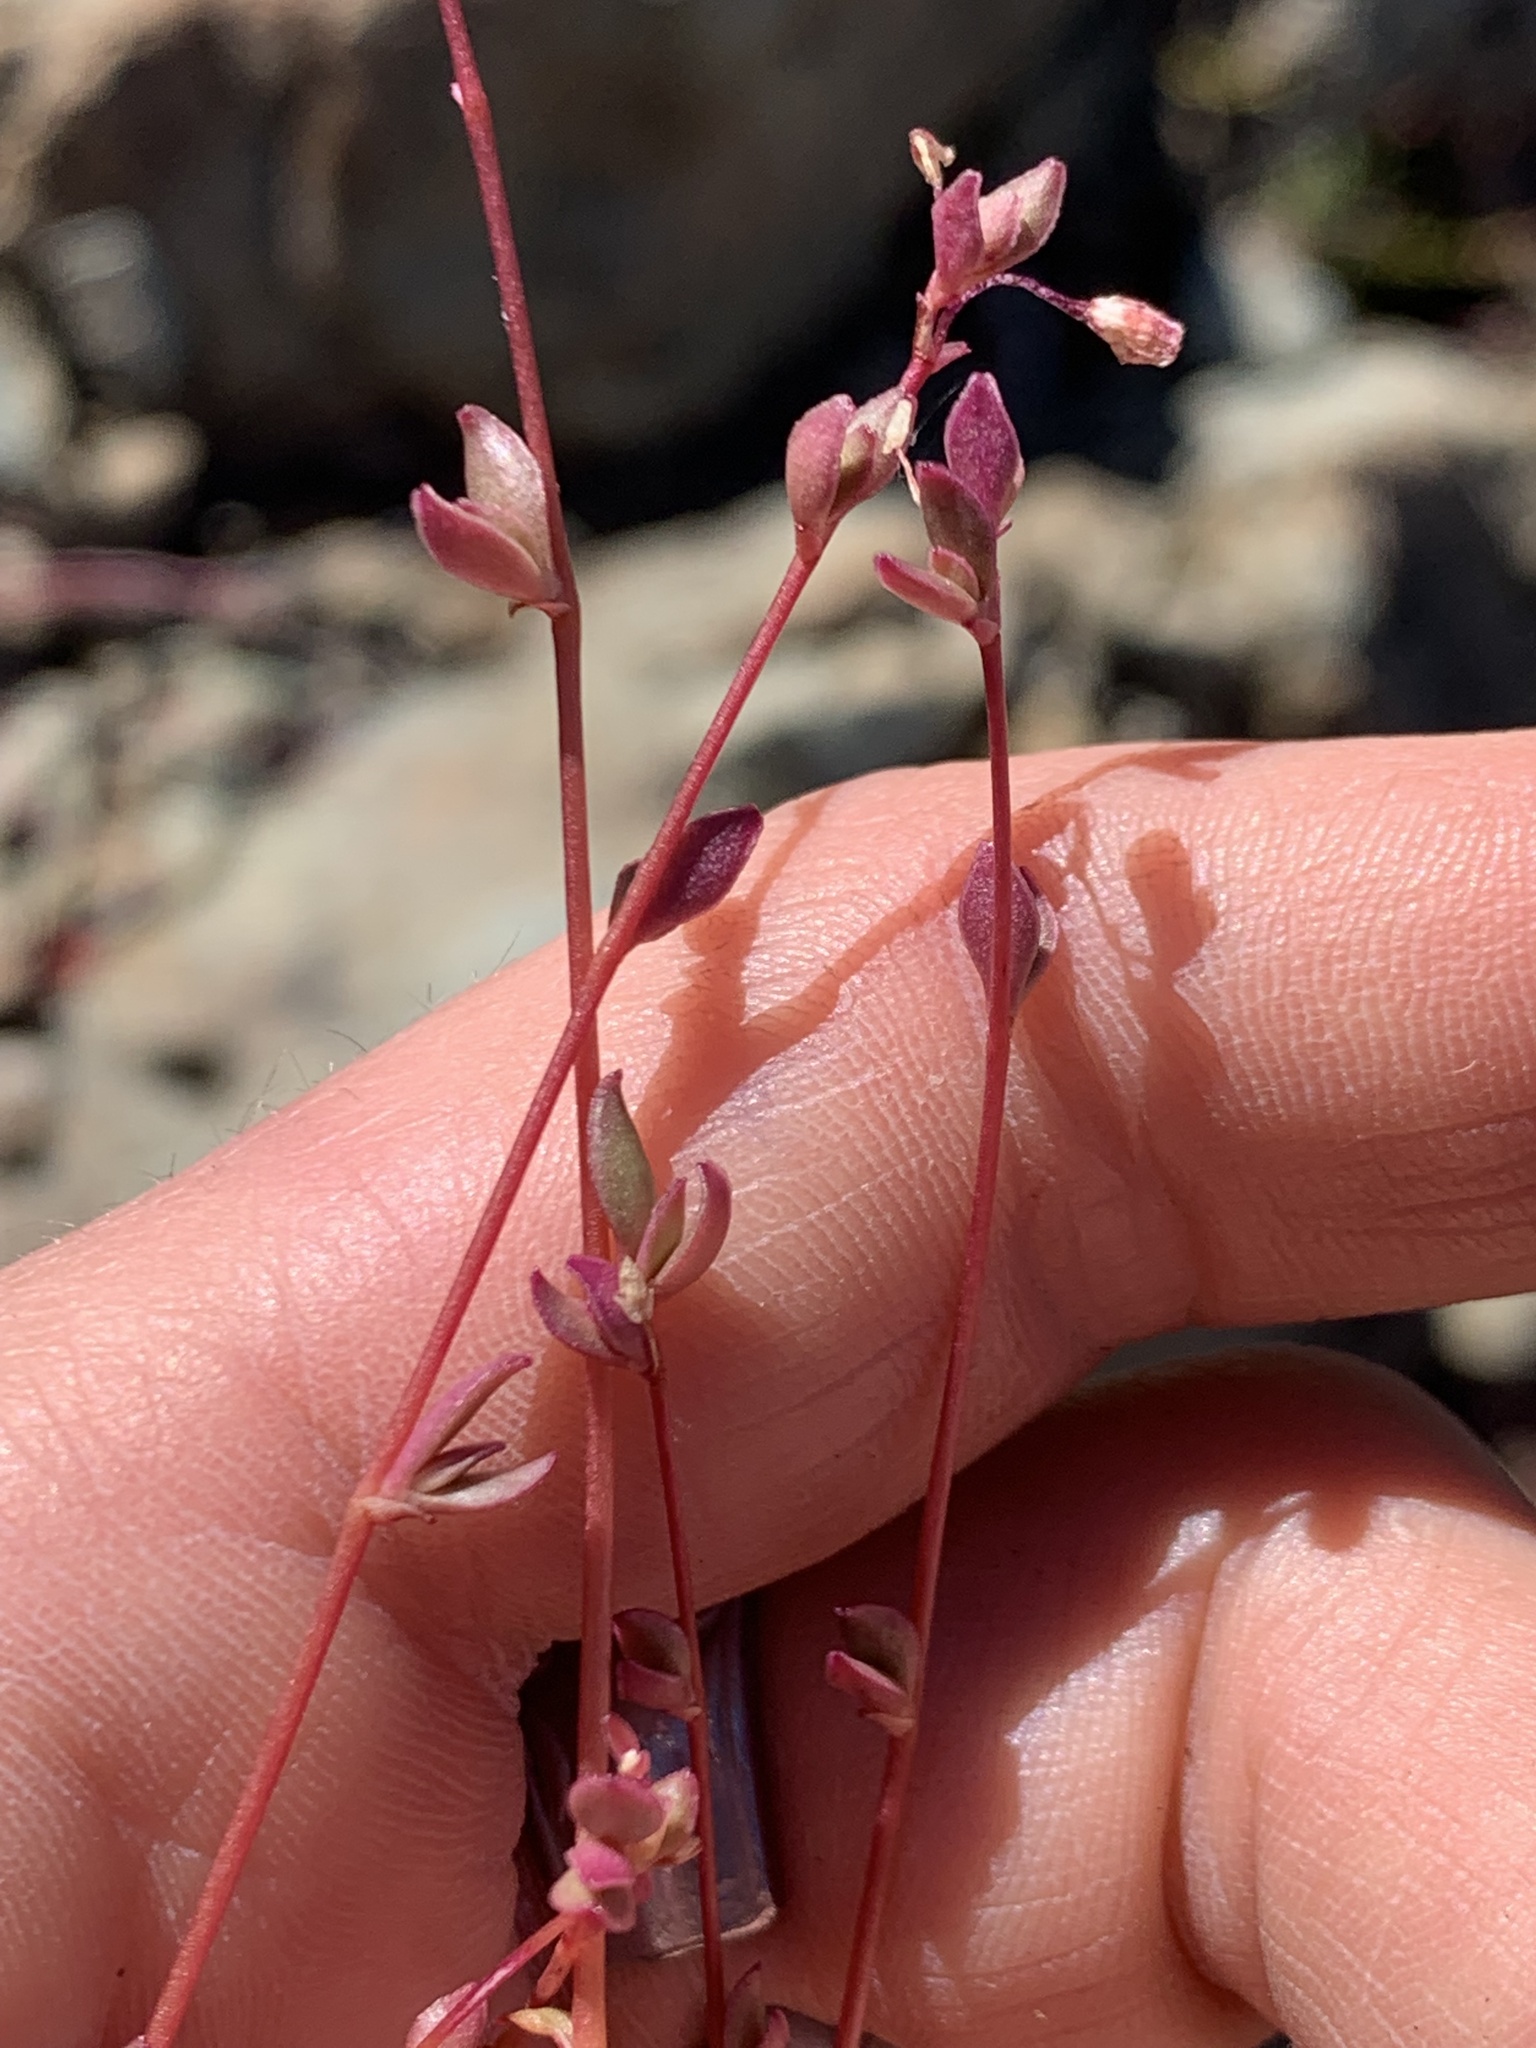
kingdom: Plantae
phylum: Tracheophyta
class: Magnoliopsida
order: Caryophyllales
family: Montiaceae
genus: Montia
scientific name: Montia parvifolia
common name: Small-leaved blinks
